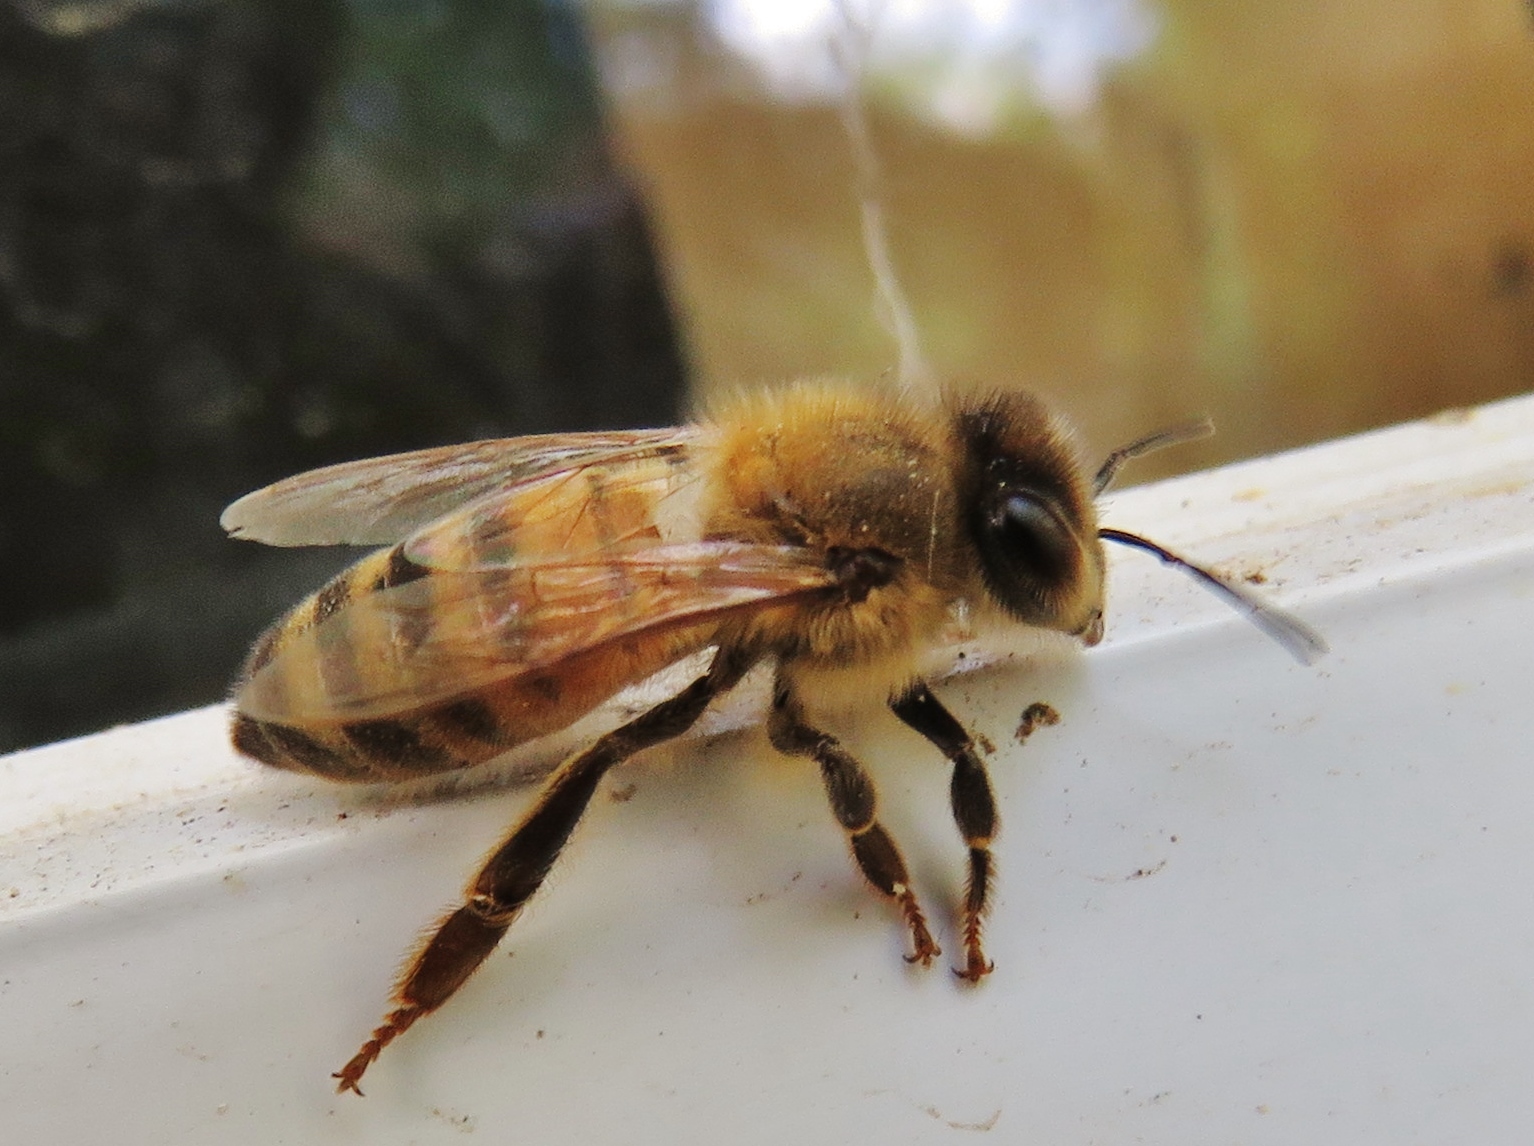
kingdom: Animalia
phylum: Arthropoda
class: Insecta
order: Hymenoptera
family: Apidae
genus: Apis
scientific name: Apis mellifera
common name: Honey bee
